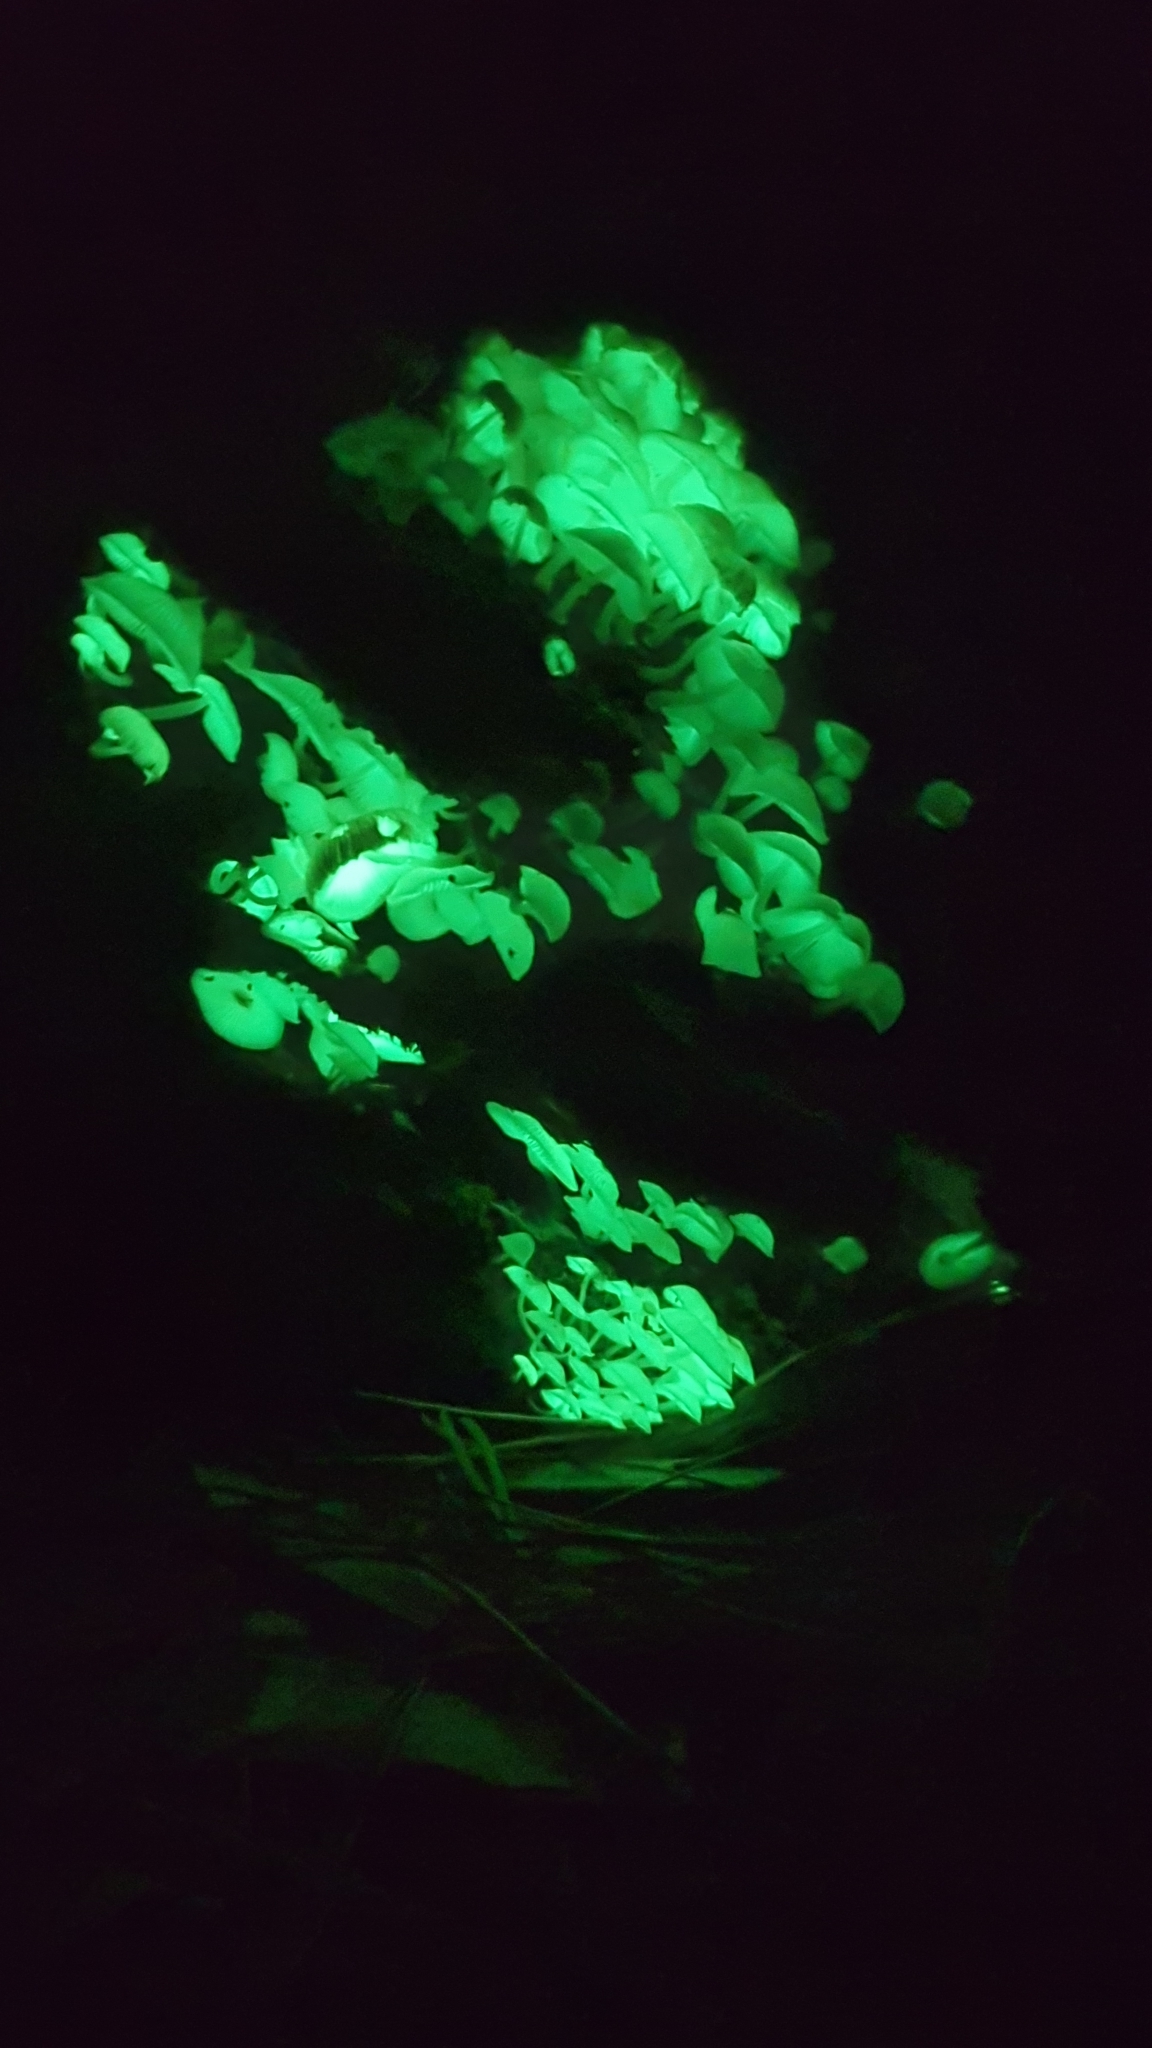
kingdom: Fungi
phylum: Basidiomycota
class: Agaricomycetes
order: Agaricales
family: Mycenaceae
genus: Mycena
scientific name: Mycena chlorophos
